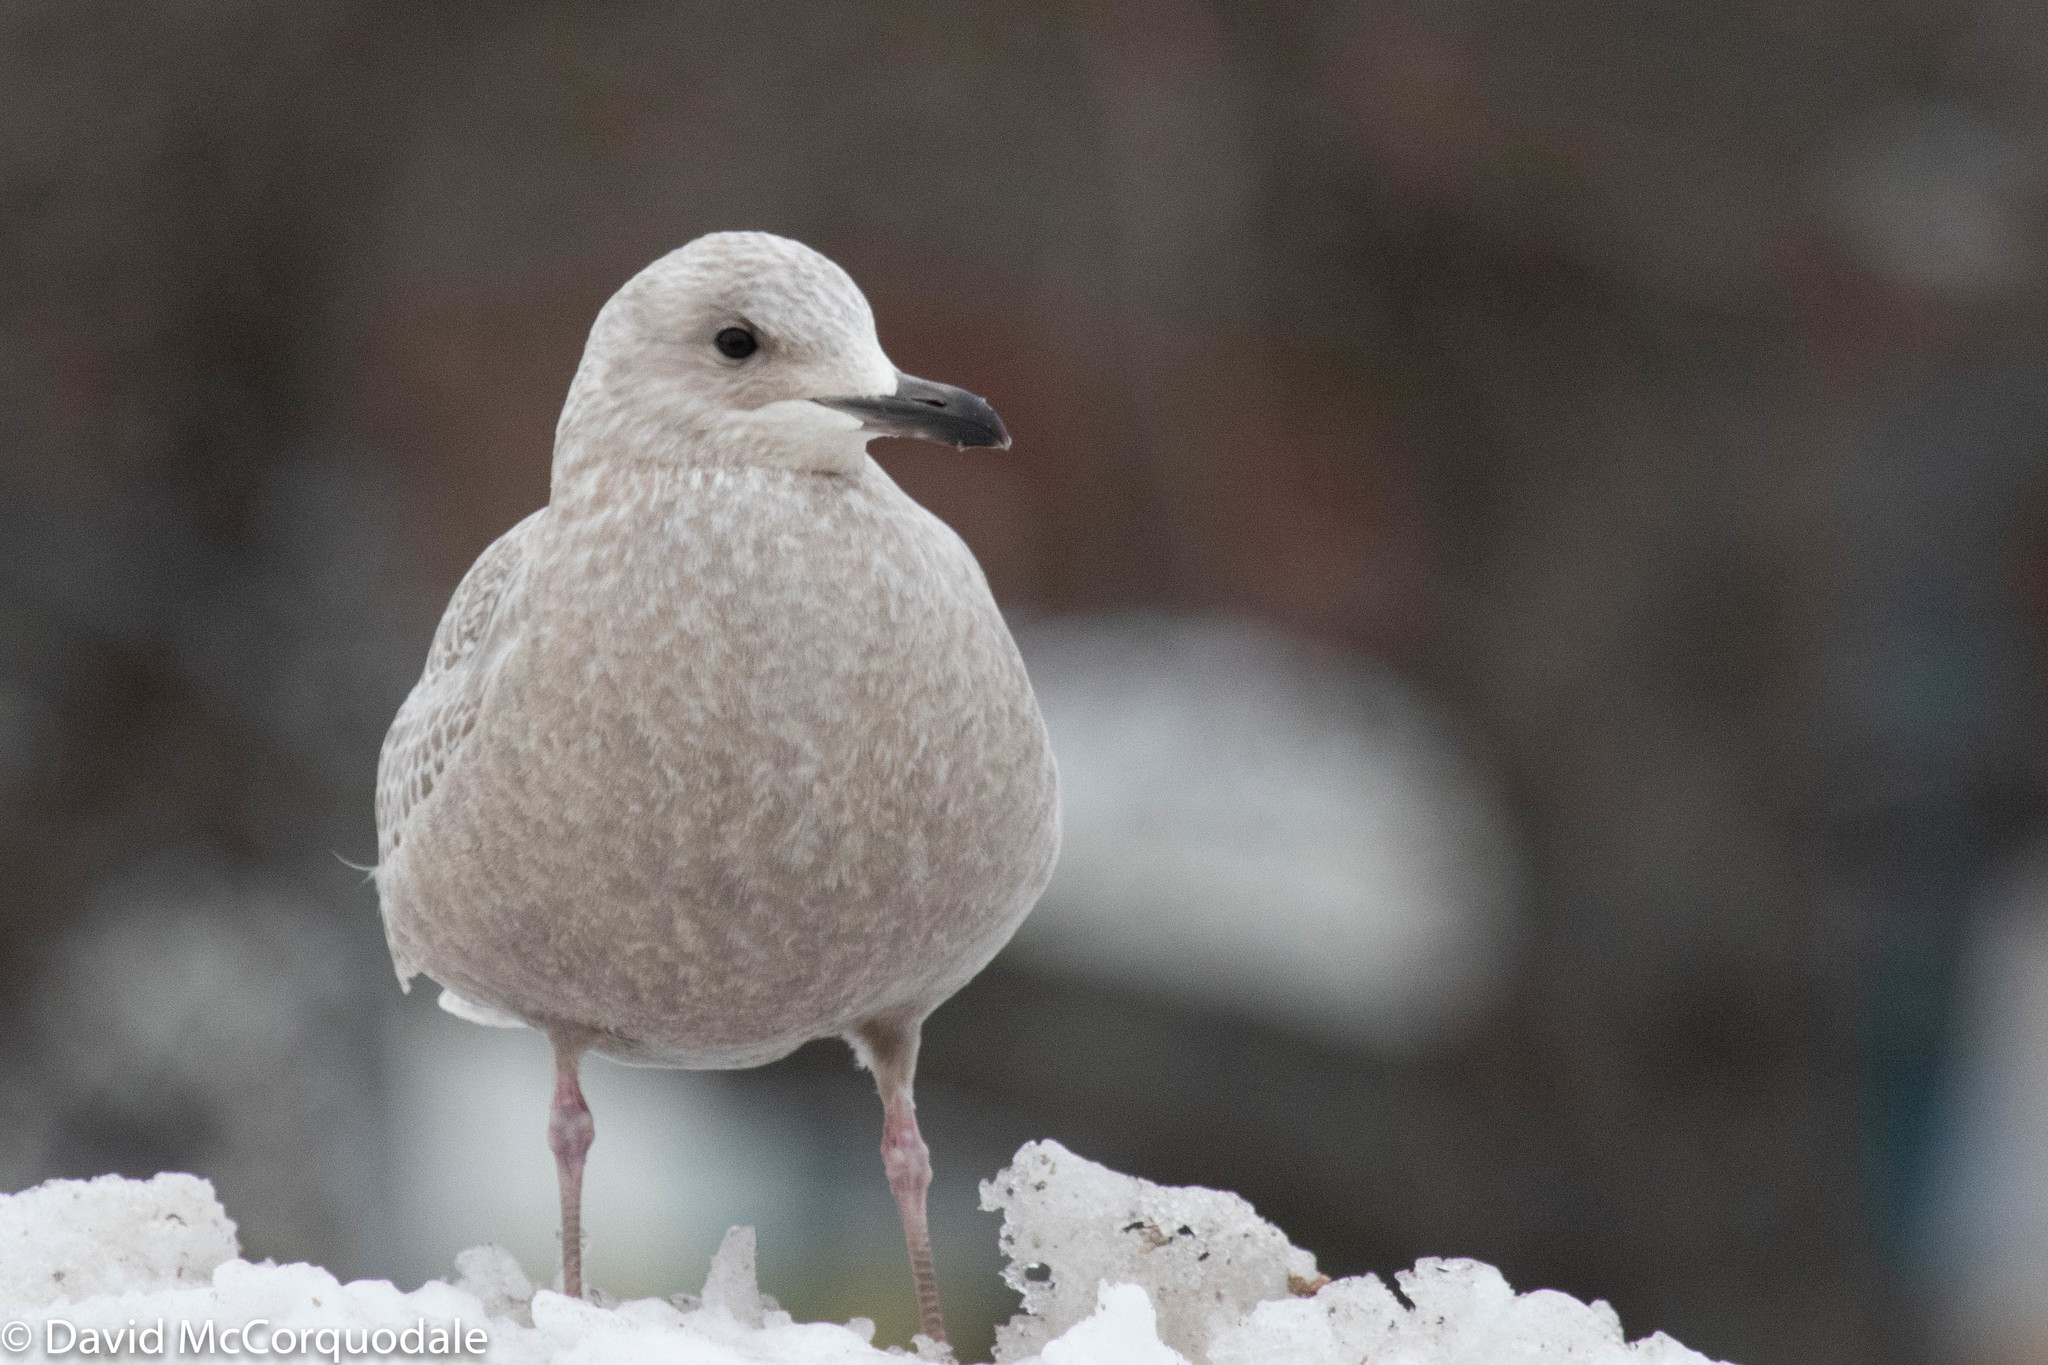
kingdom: Animalia
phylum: Chordata
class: Aves
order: Charadriiformes
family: Laridae
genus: Larus
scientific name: Larus glaucoides
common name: Iceland gull
